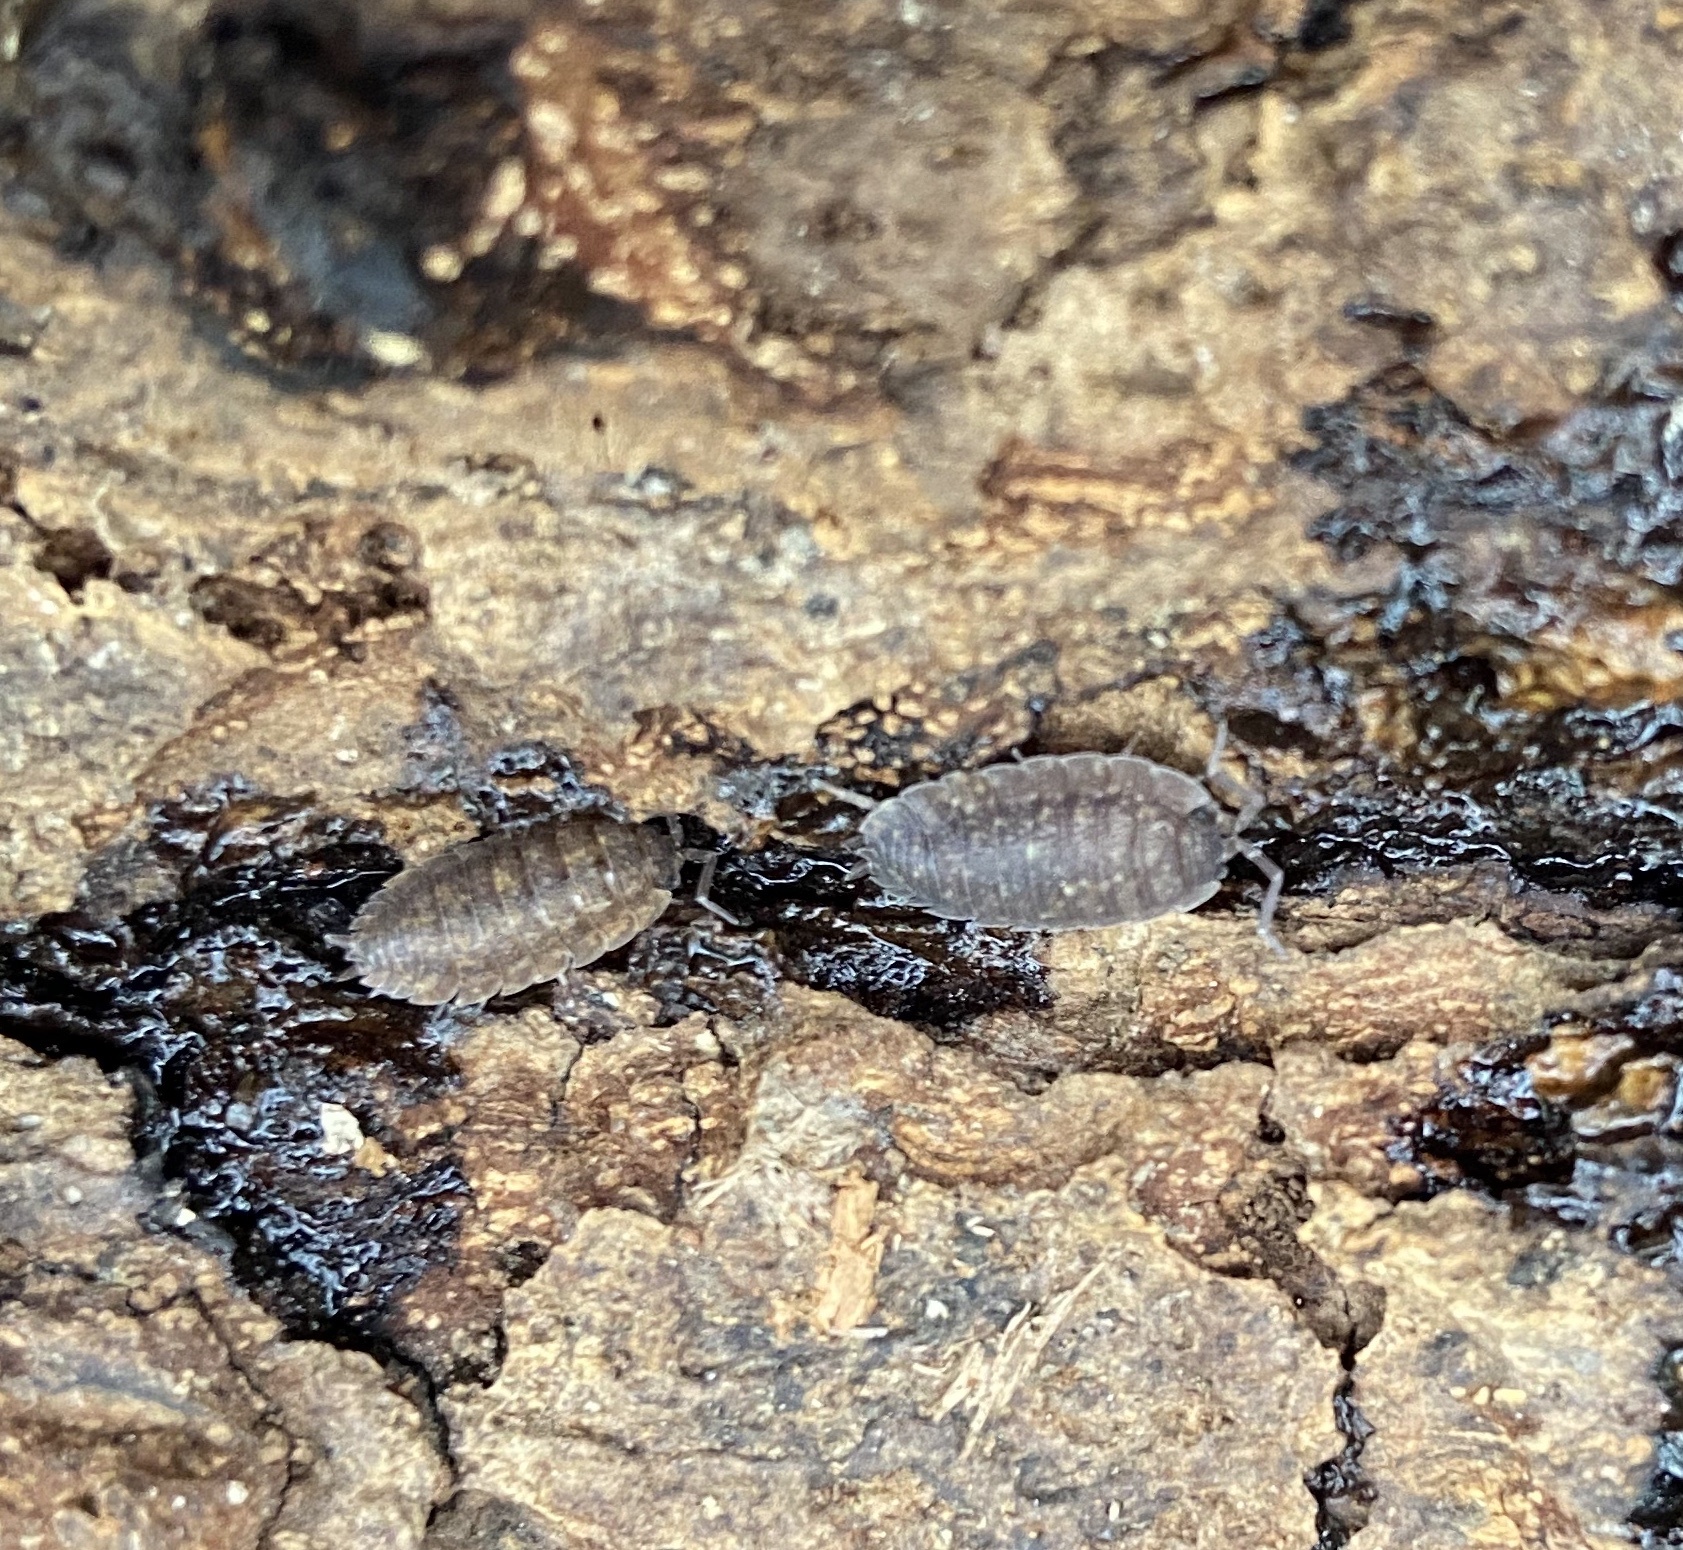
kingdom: Animalia
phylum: Arthropoda
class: Malacostraca
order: Isopoda
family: Porcellionidae
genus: Porcellio
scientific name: Porcellio scaber
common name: Common rough woodlouse
